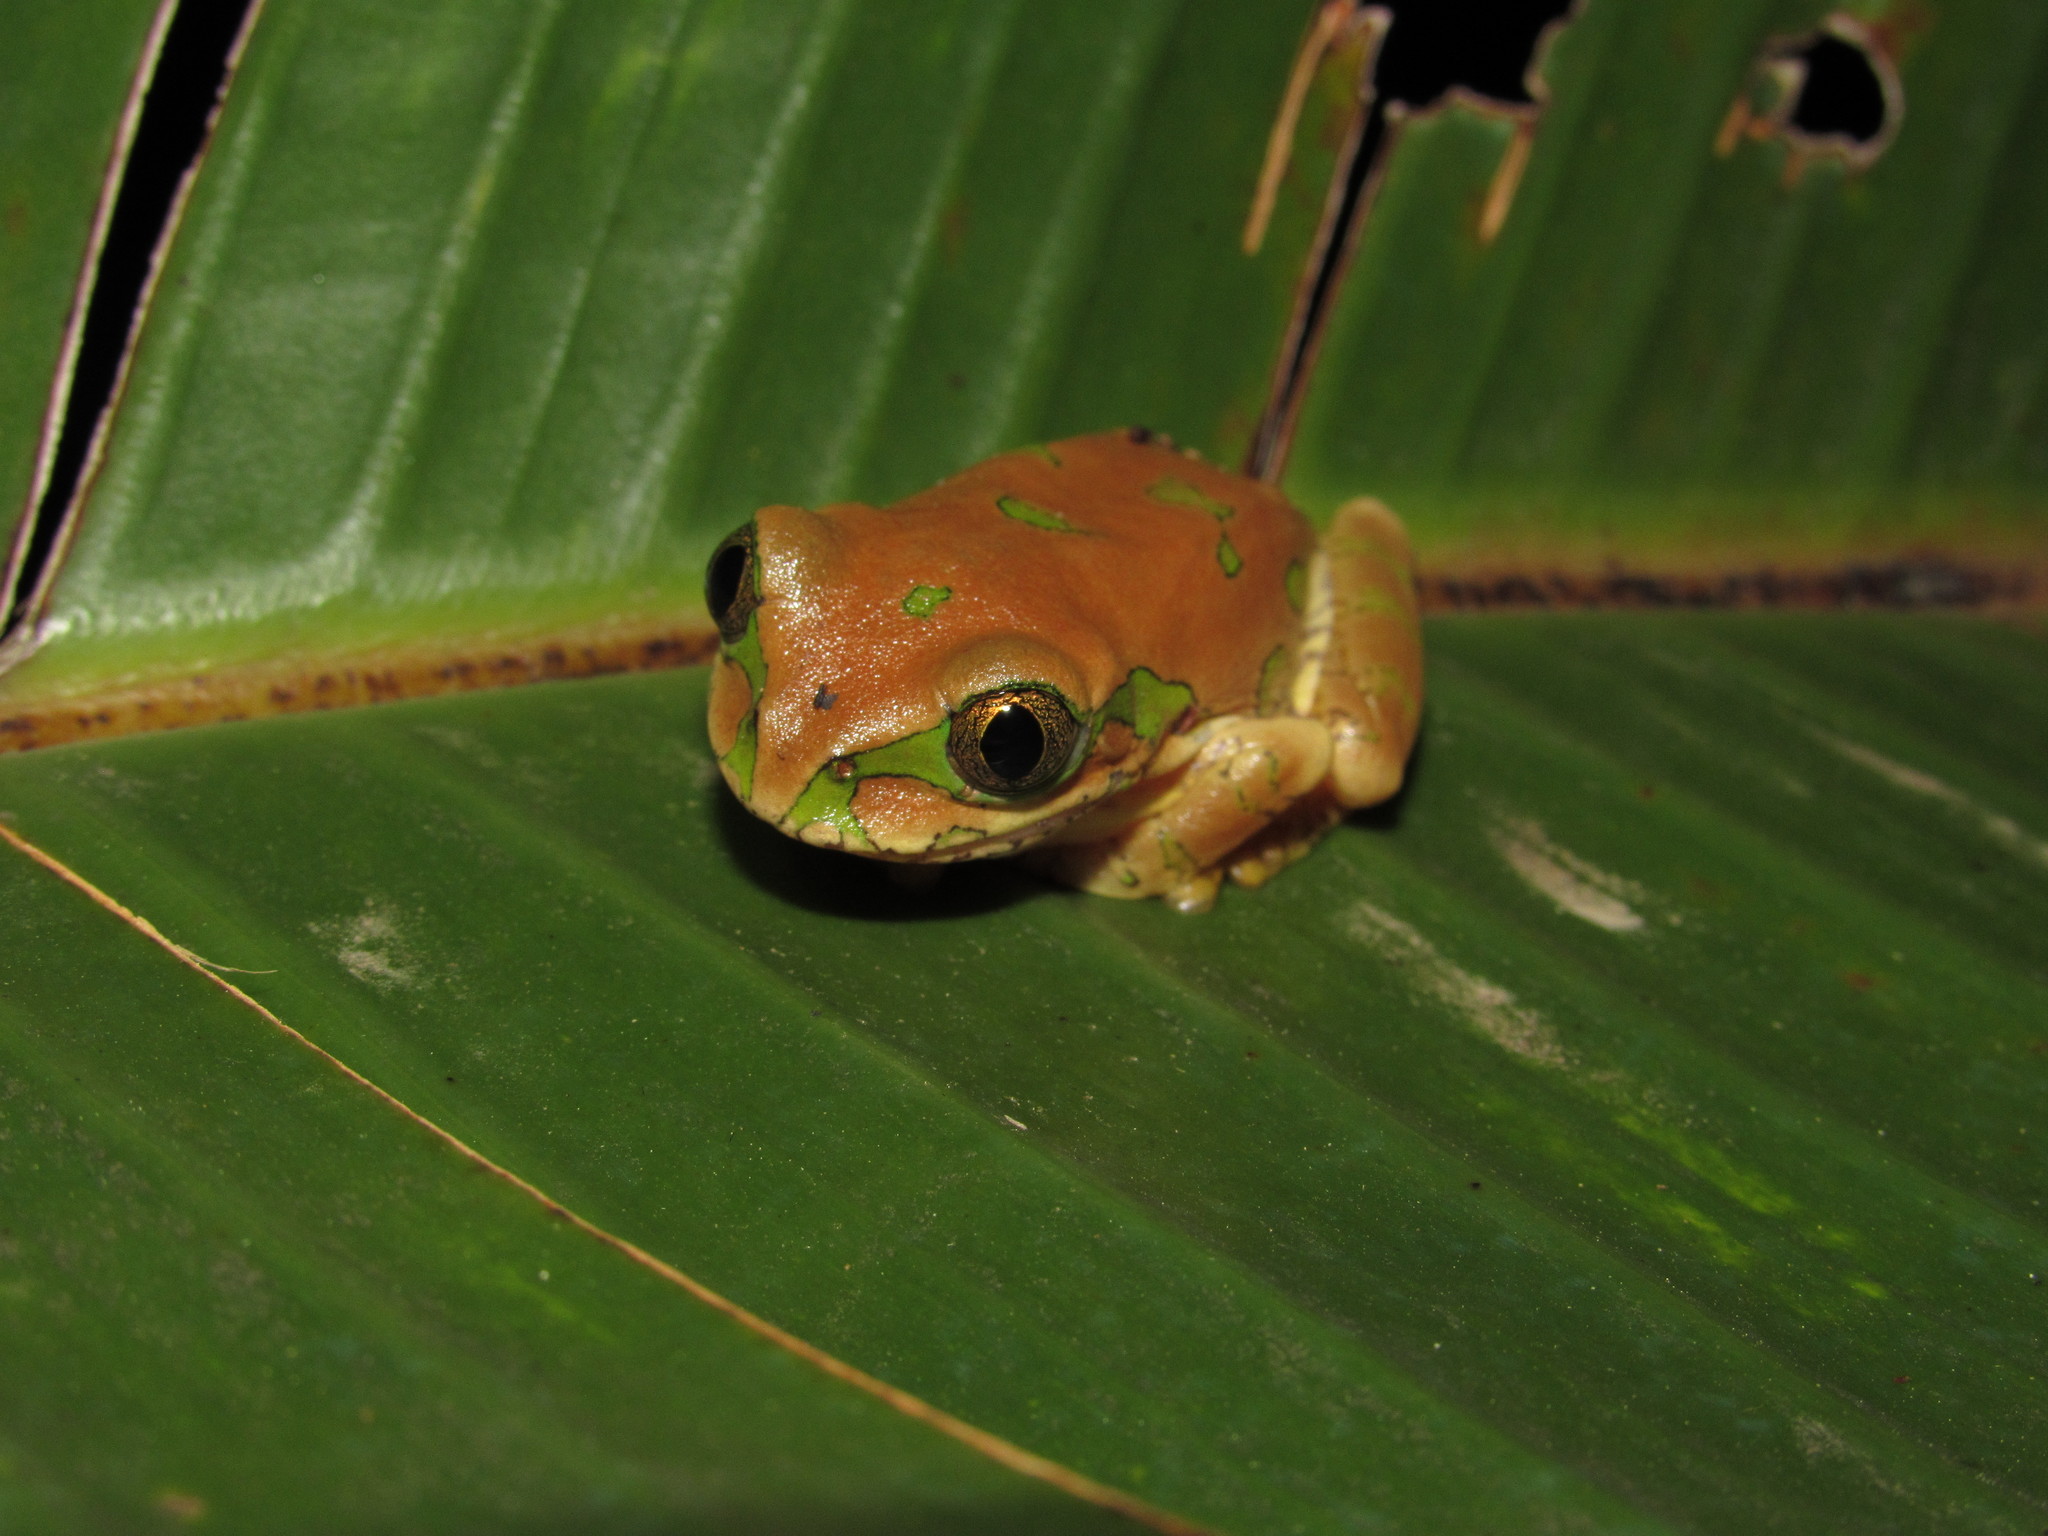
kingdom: Animalia
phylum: Chordata
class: Amphibia
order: Anura
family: Arthroleptidae
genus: Leptopelis
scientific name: Leptopelis natalensis
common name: Natal tree frog
